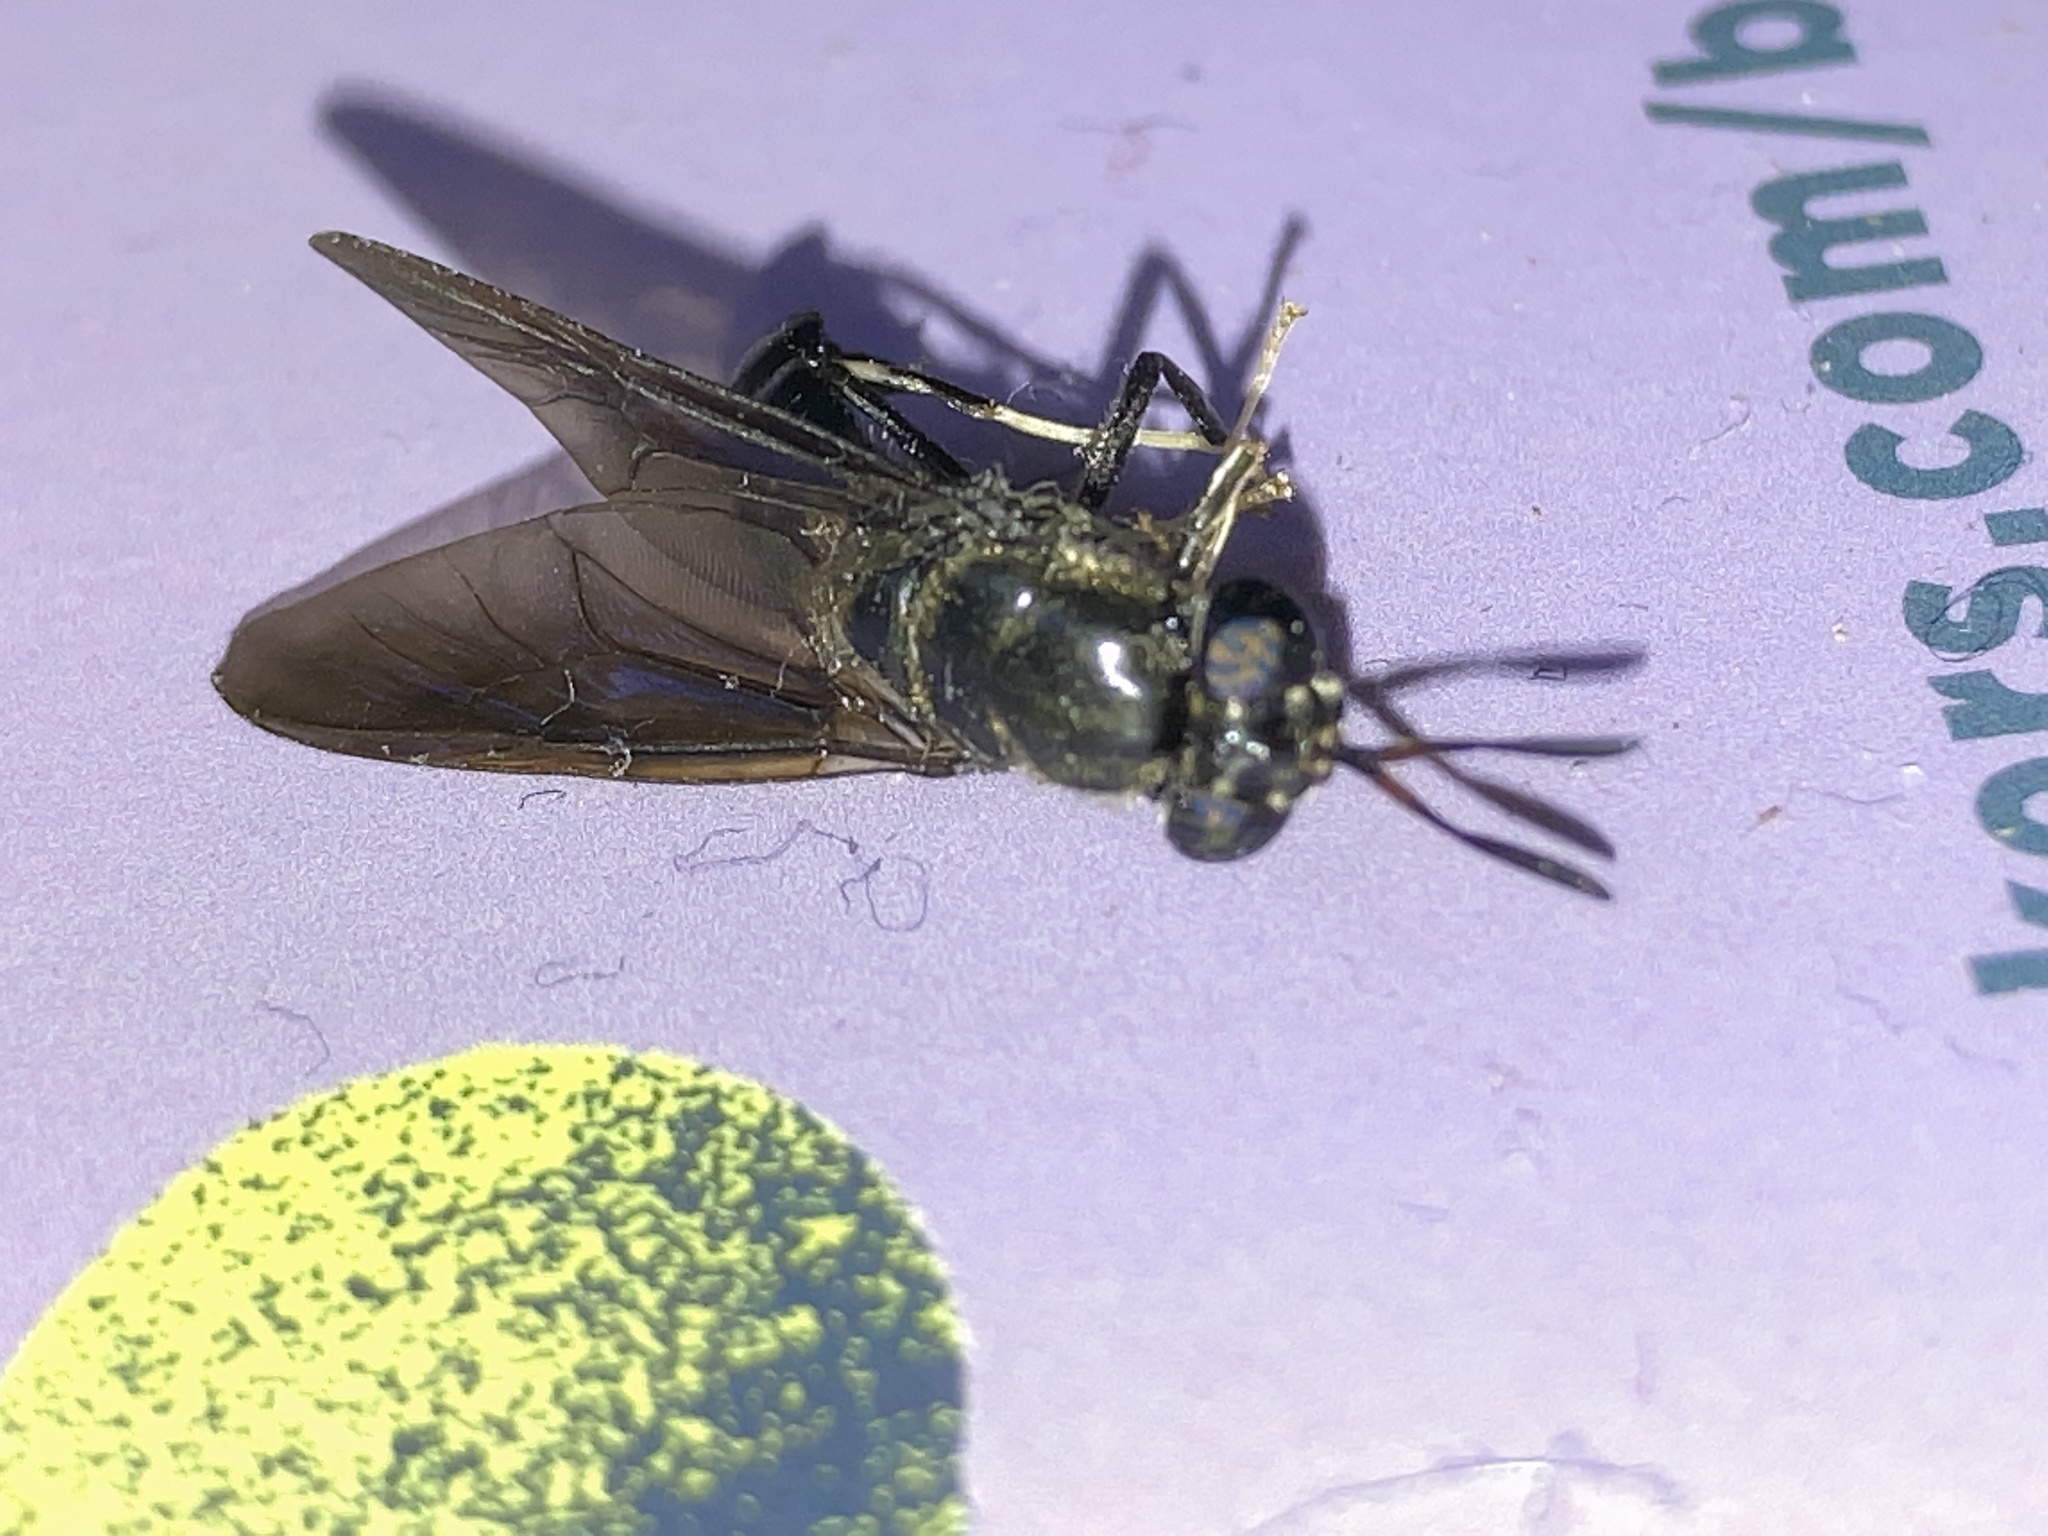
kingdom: Animalia
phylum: Arthropoda
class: Insecta
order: Diptera
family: Stratiomyidae
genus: Hermetia
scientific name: Hermetia illucens
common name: Black soldier fly
